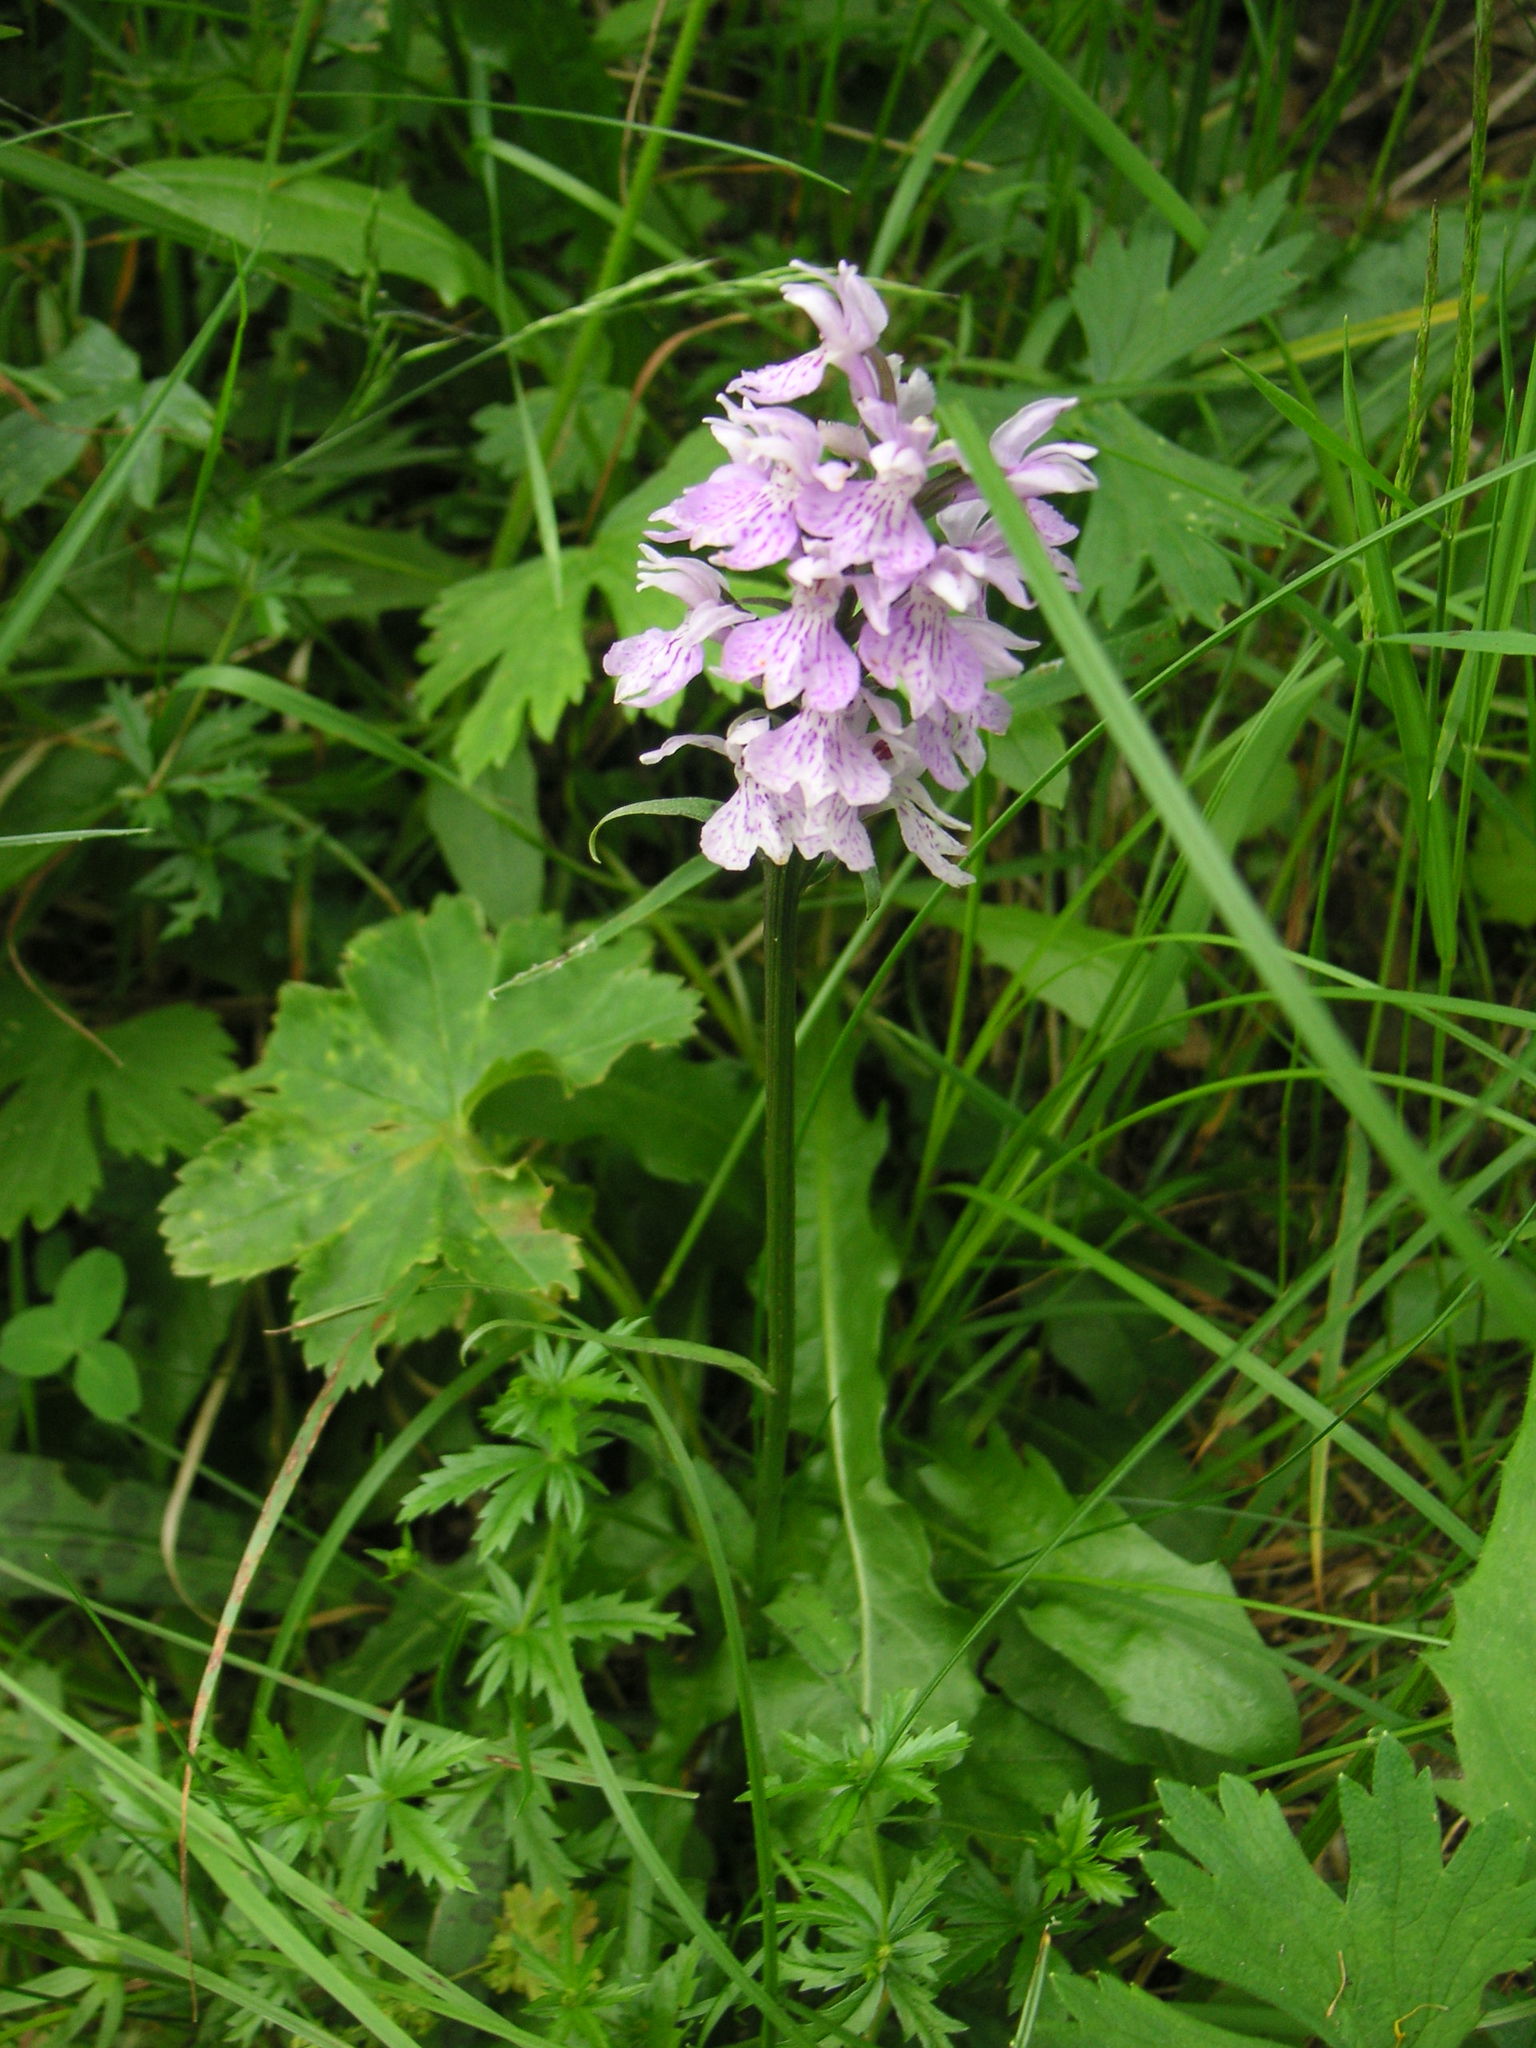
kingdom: Plantae
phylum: Tracheophyta
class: Liliopsida
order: Asparagales
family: Orchidaceae
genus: Dactylorhiza
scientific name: Dactylorhiza maculata
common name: Heath spotted-orchid
